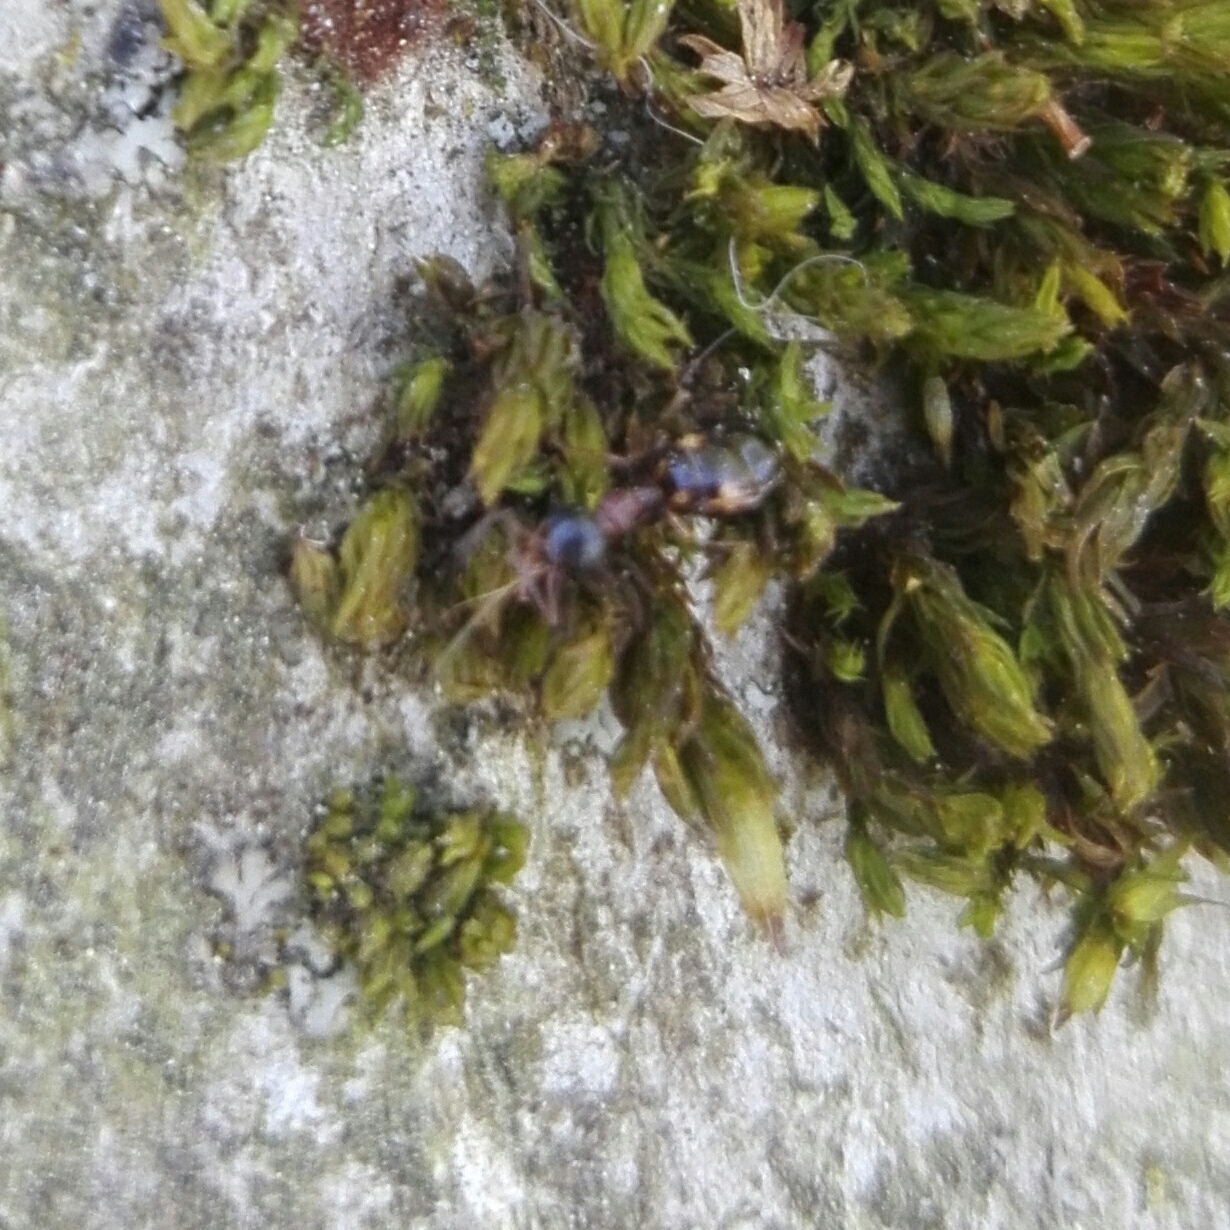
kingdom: Animalia
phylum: Arthropoda
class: Insecta
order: Hymenoptera
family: Formicidae
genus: Dolichoderus
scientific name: Dolichoderus quadripunctatus
